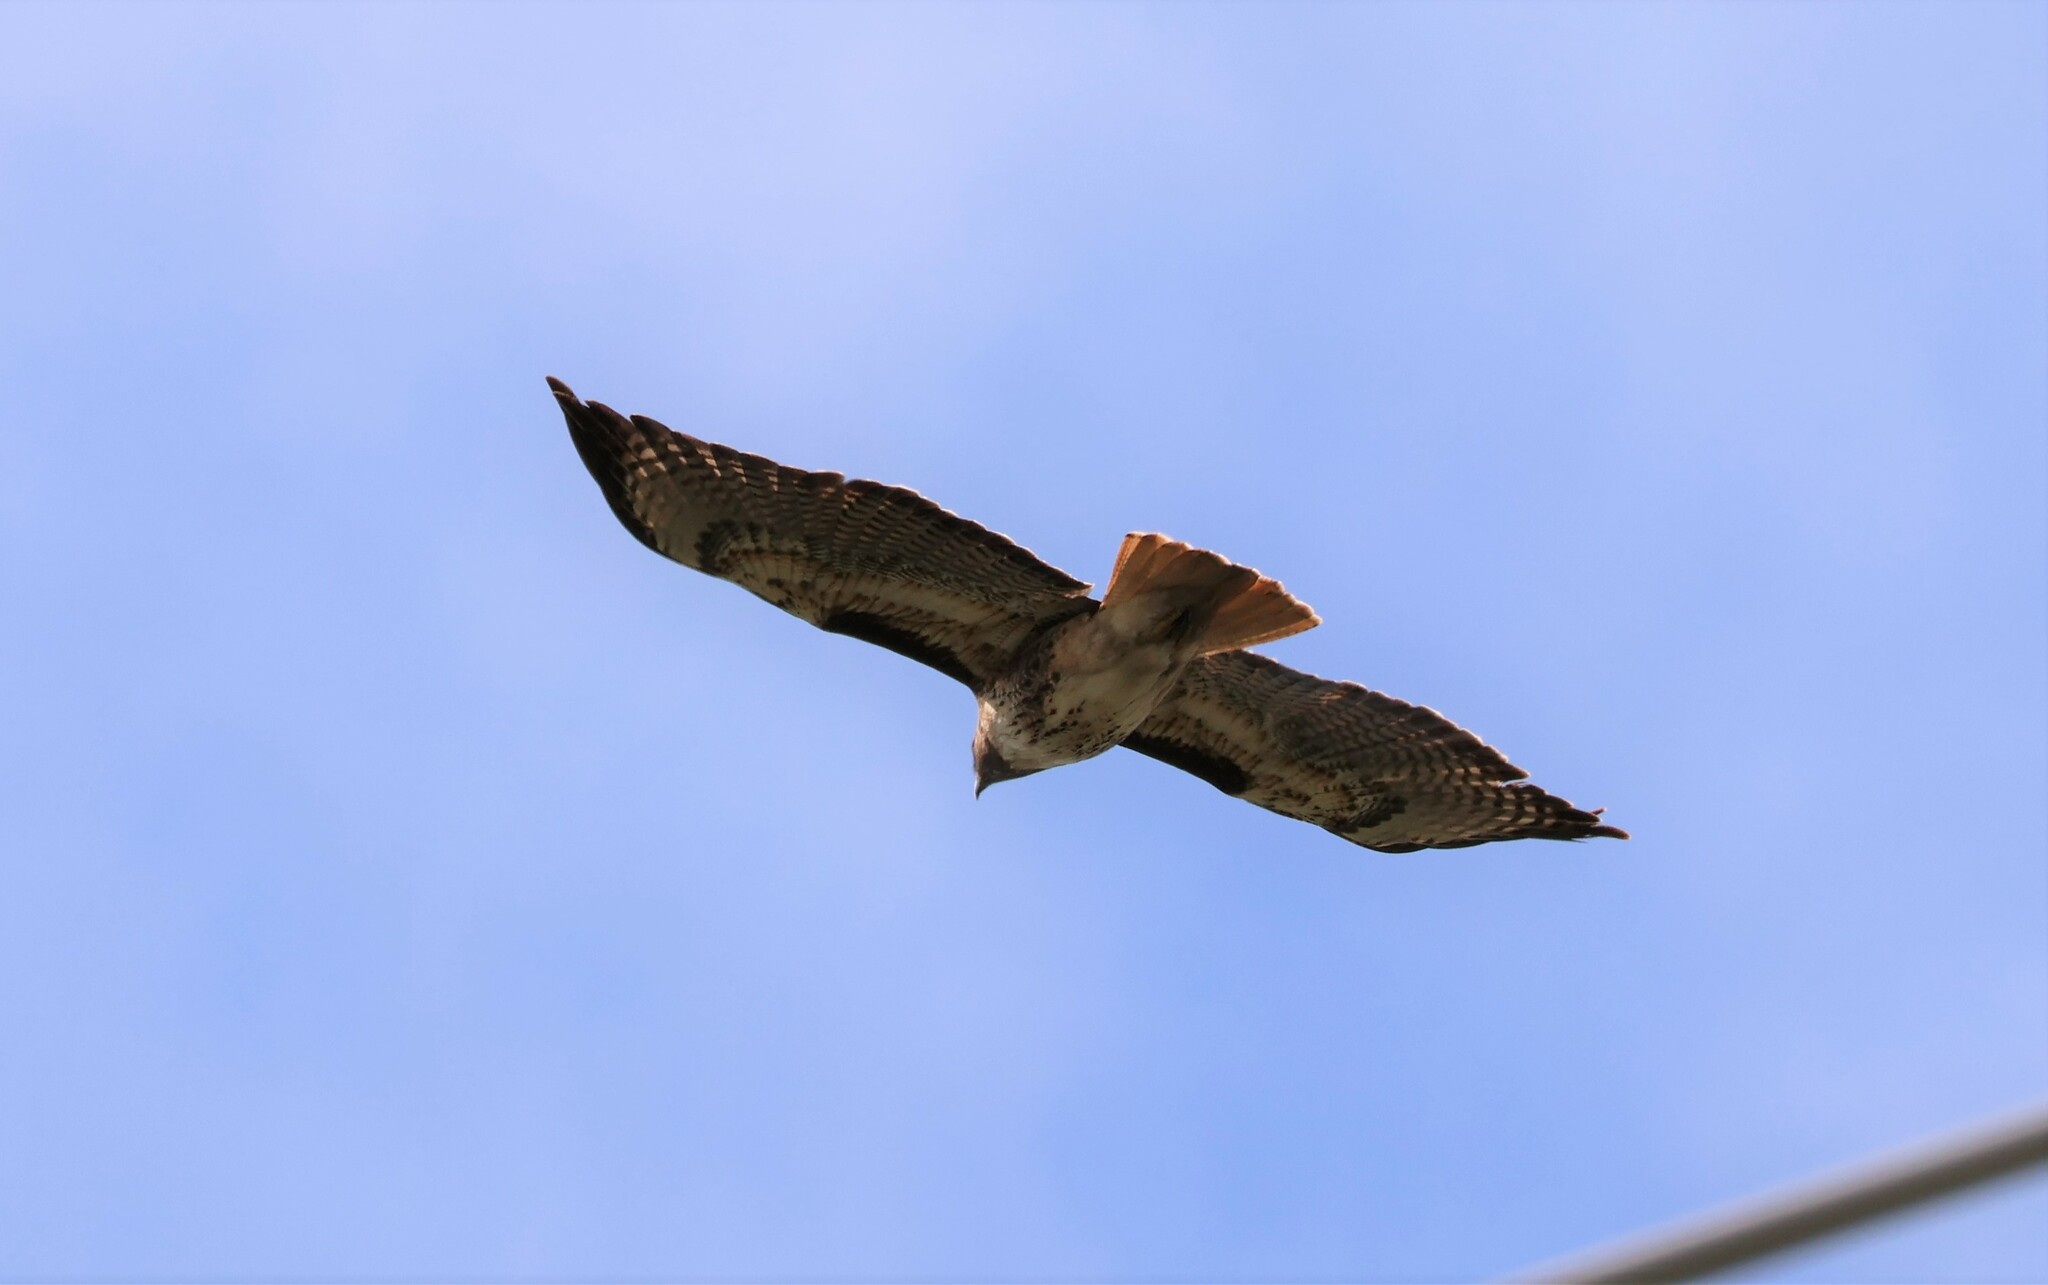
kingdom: Animalia
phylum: Chordata
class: Aves
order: Accipitriformes
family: Accipitridae
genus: Buteo
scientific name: Buteo jamaicensis
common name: Red-tailed hawk
